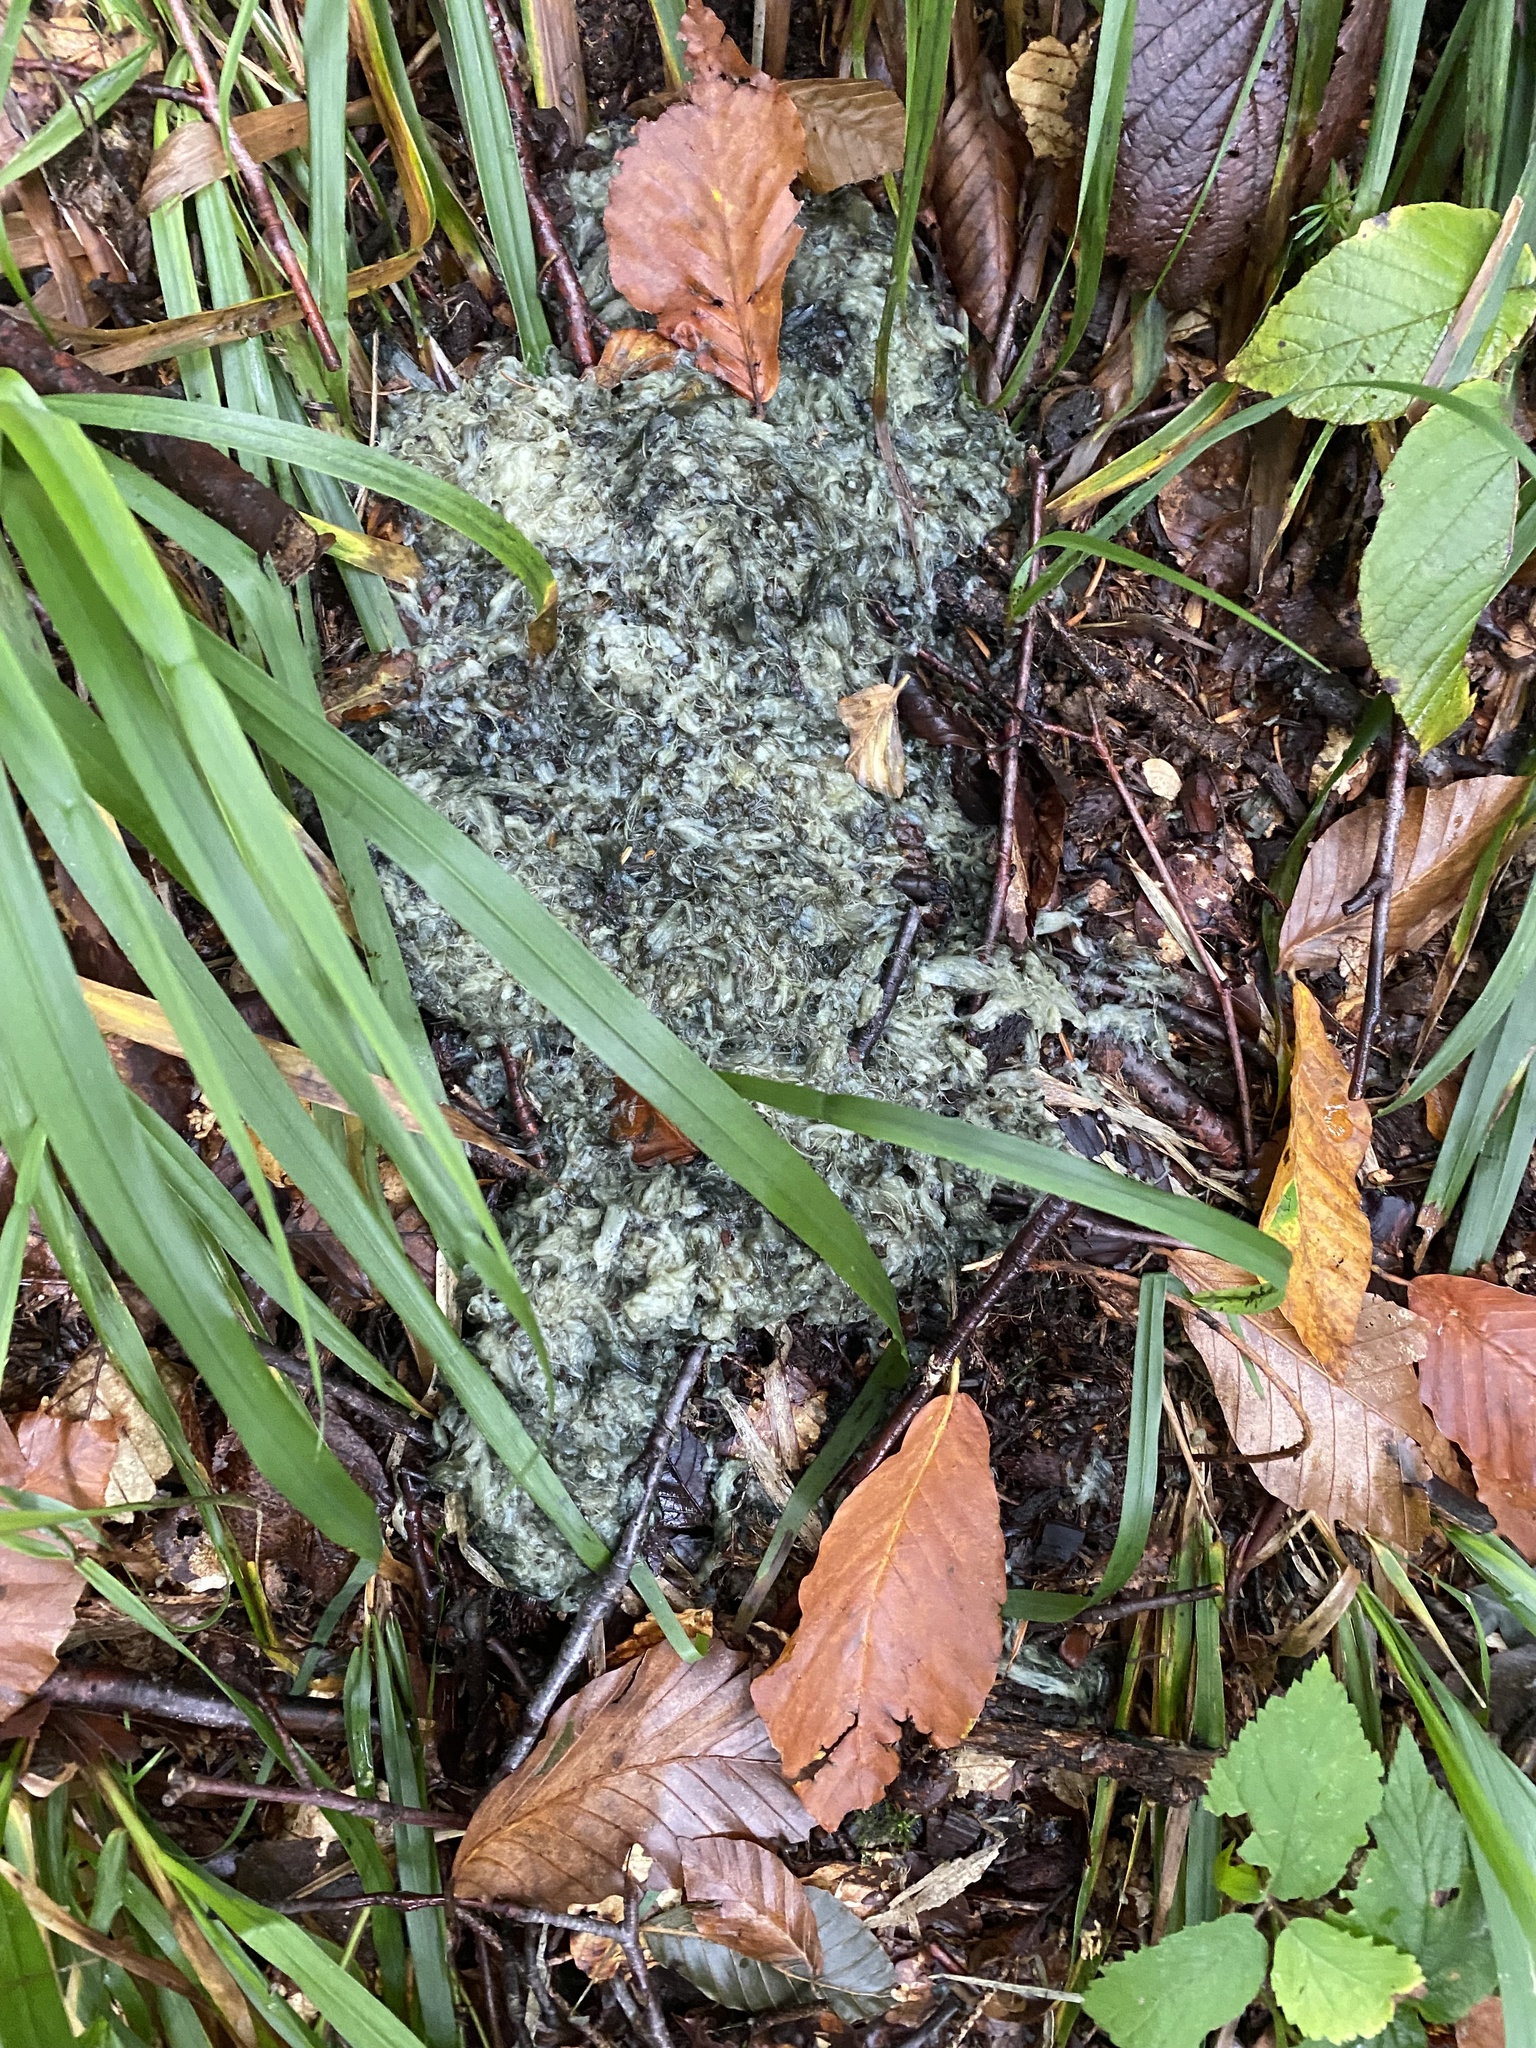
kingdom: Animalia
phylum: Chordata
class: Mammalia
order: Carnivora
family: Ursidae
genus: Ursus
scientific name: Ursus arctos
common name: Brown bear
